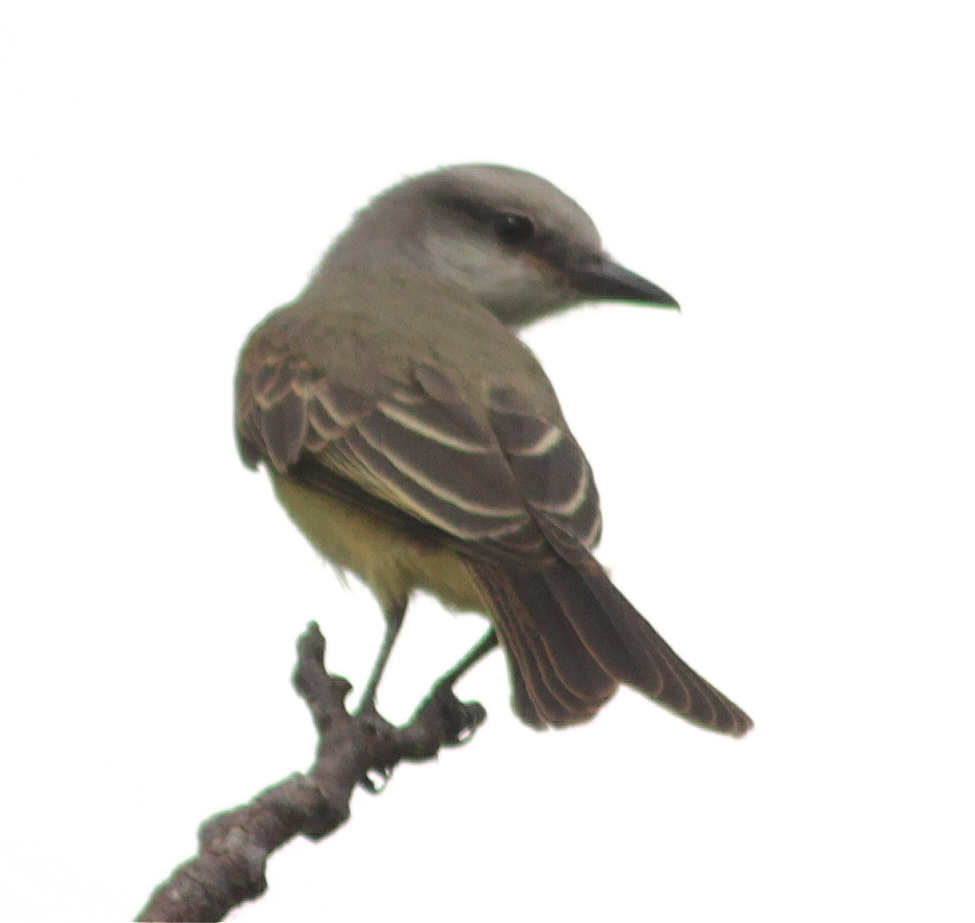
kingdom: Animalia
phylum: Chordata
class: Aves
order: Passeriformes
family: Tyrannidae
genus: Tyrannus
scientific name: Tyrannus melancholicus
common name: Tropical kingbird
